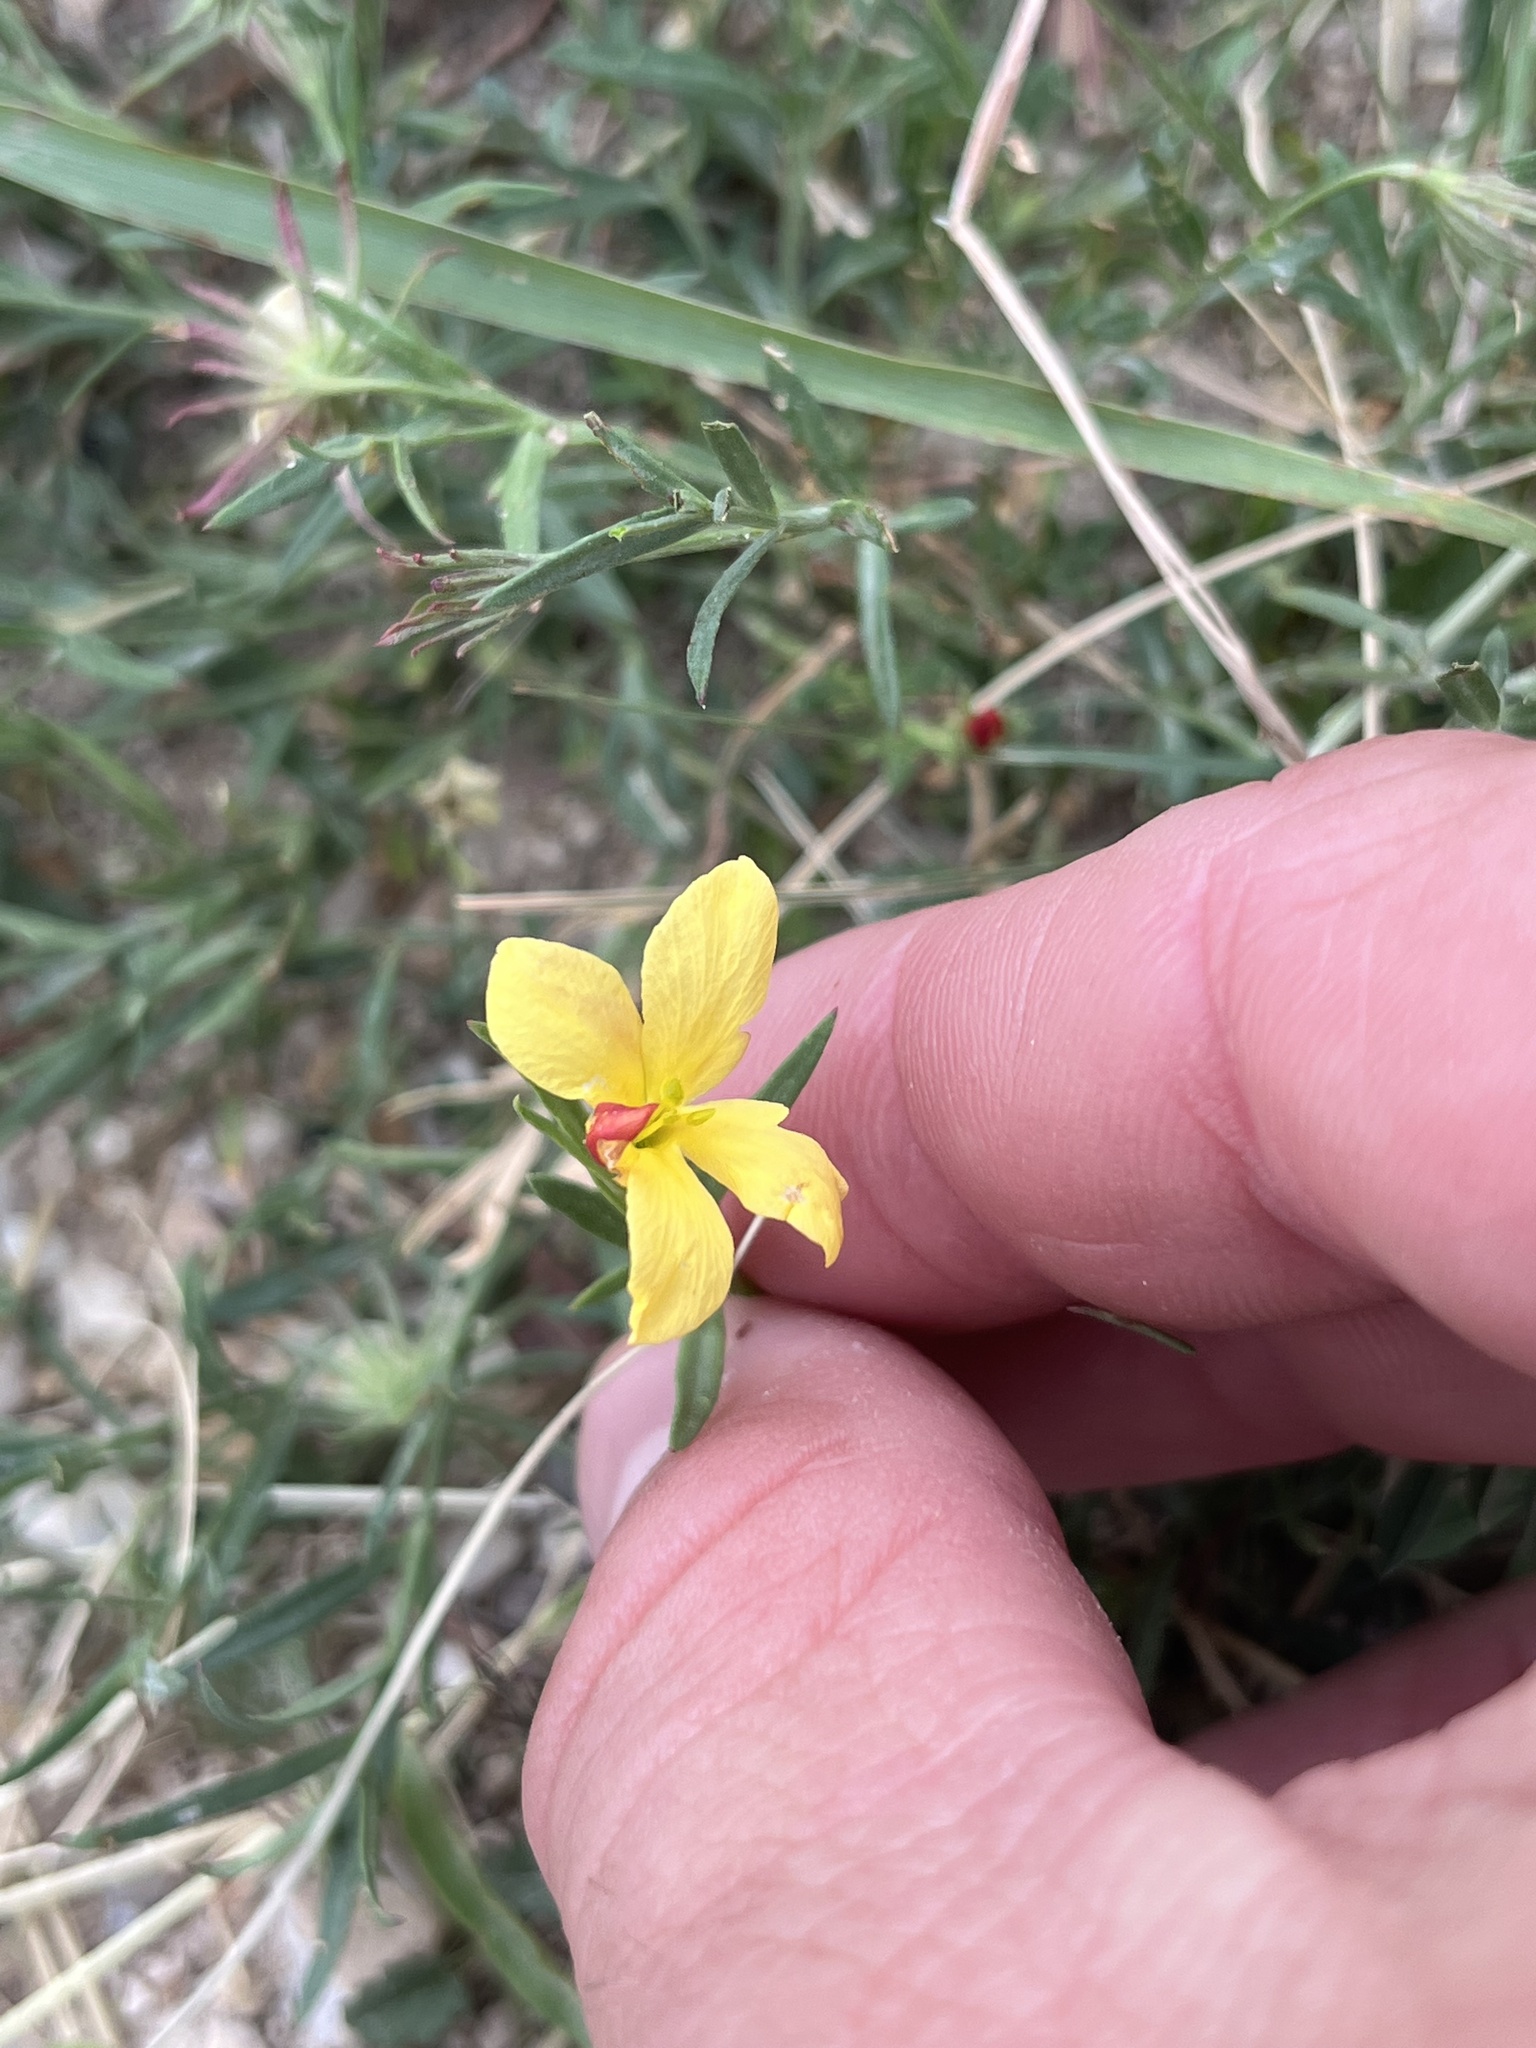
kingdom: Plantae
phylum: Tracheophyta
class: Magnoliopsida
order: Lamiales
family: Oleaceae
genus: Menodora
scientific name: Menodora heterophylla
